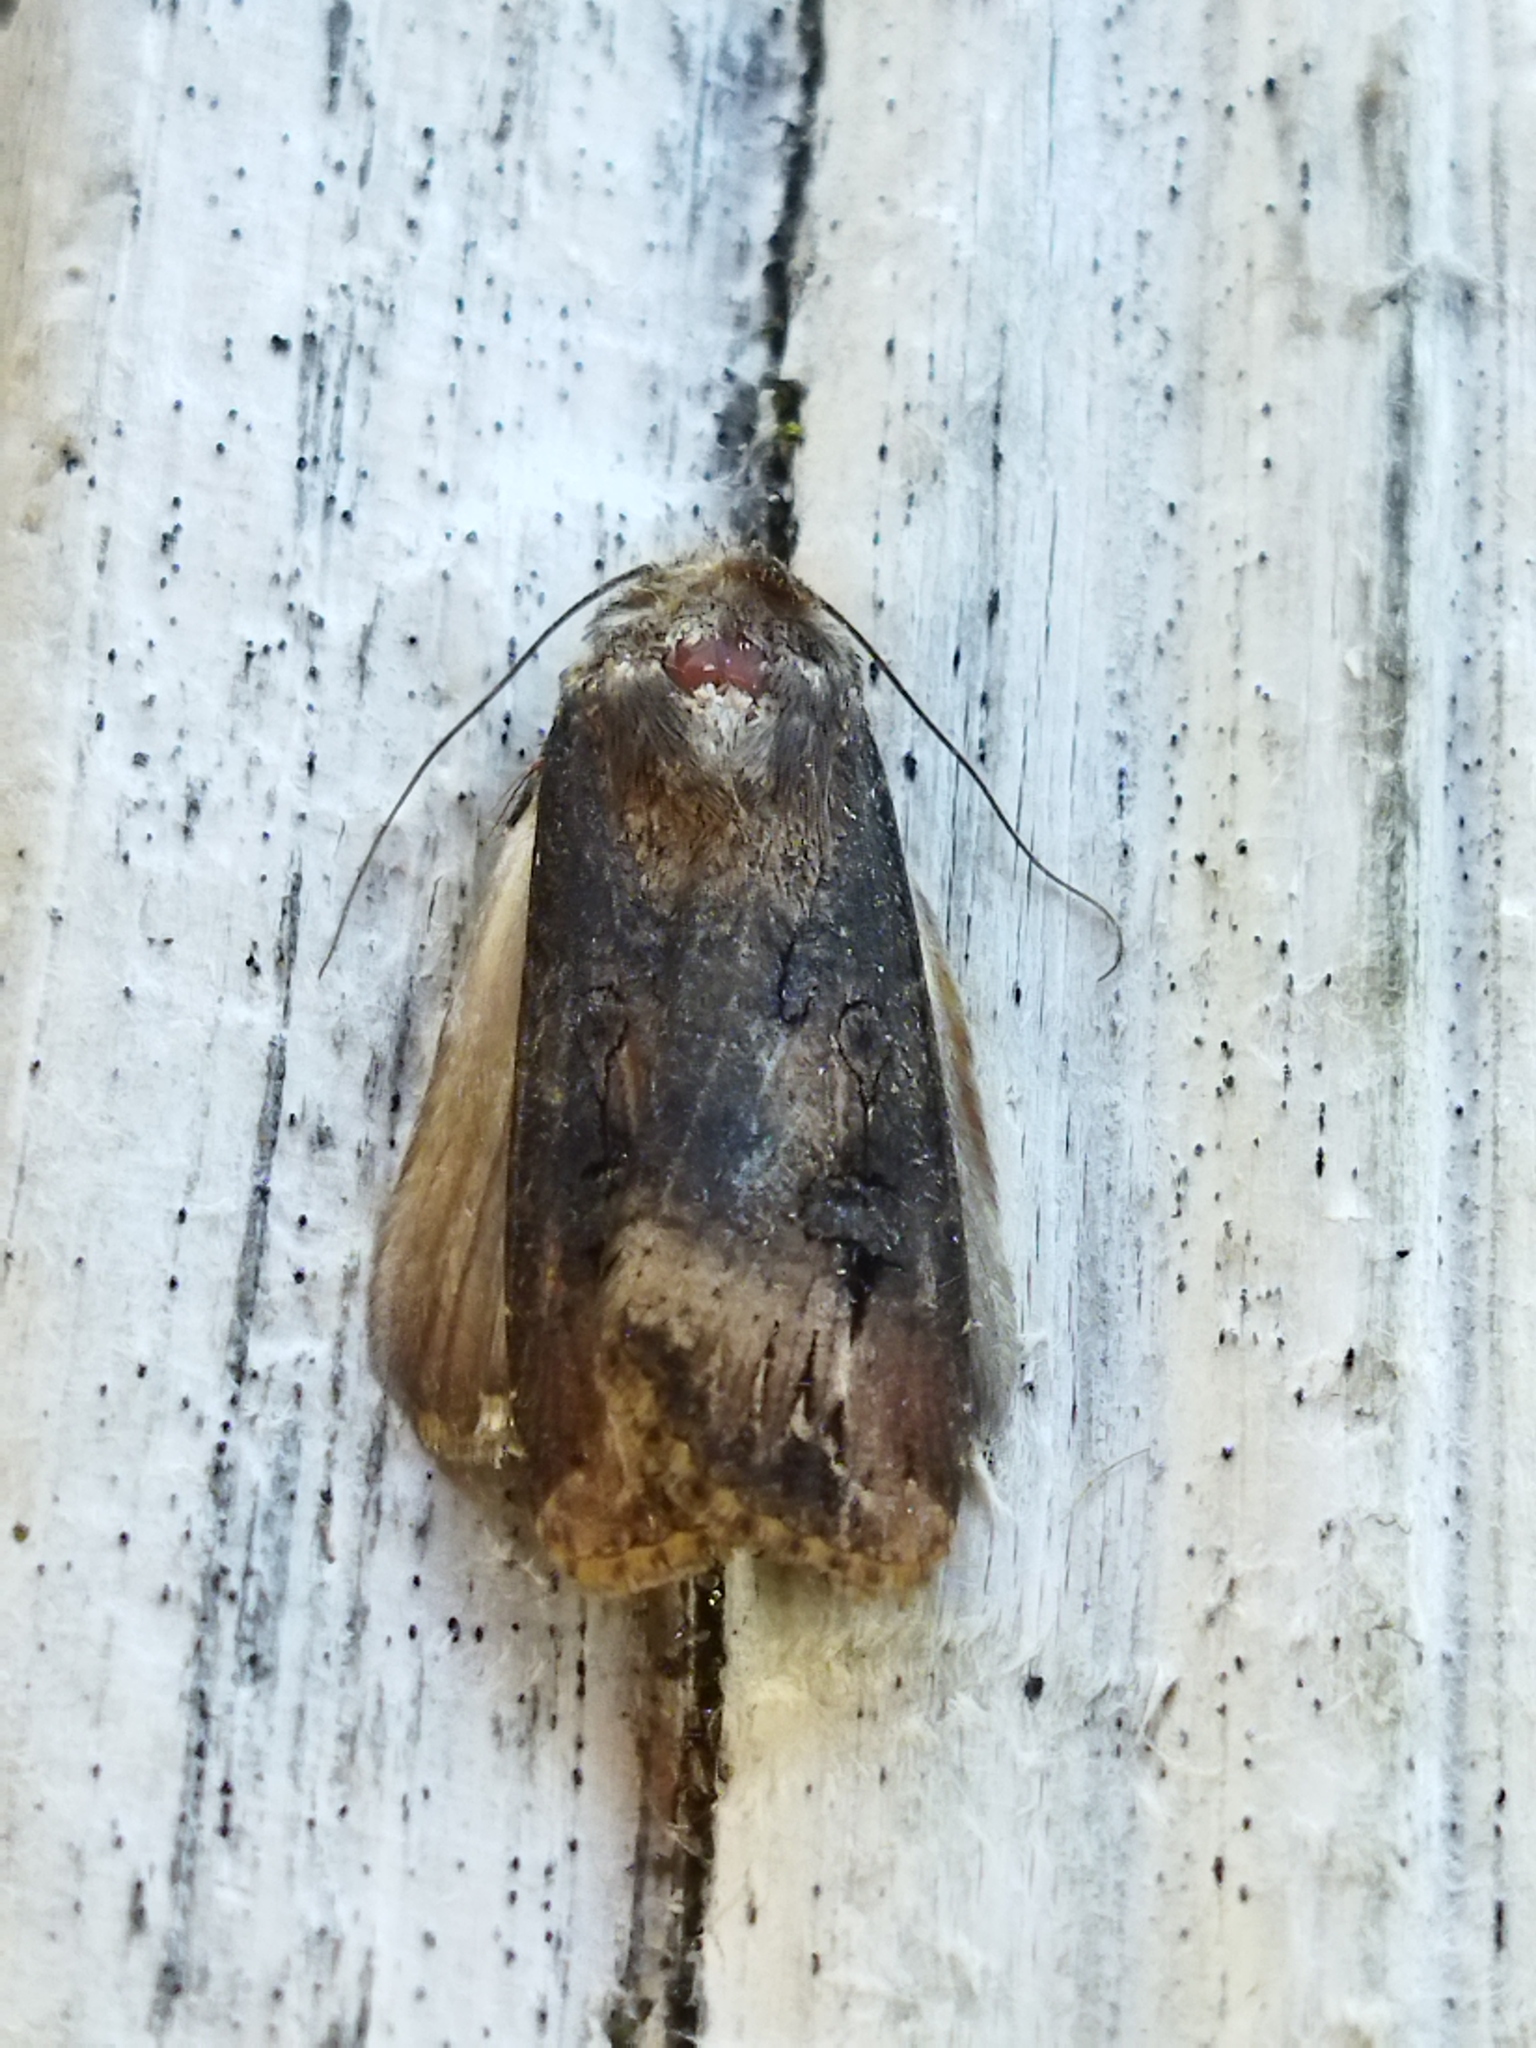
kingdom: Animalia
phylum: Arthropoda
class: Insecta
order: Lepidoptera
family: Noctuidae
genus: Agrotis
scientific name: Agrotis ipsilon
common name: Dark sword-grass
